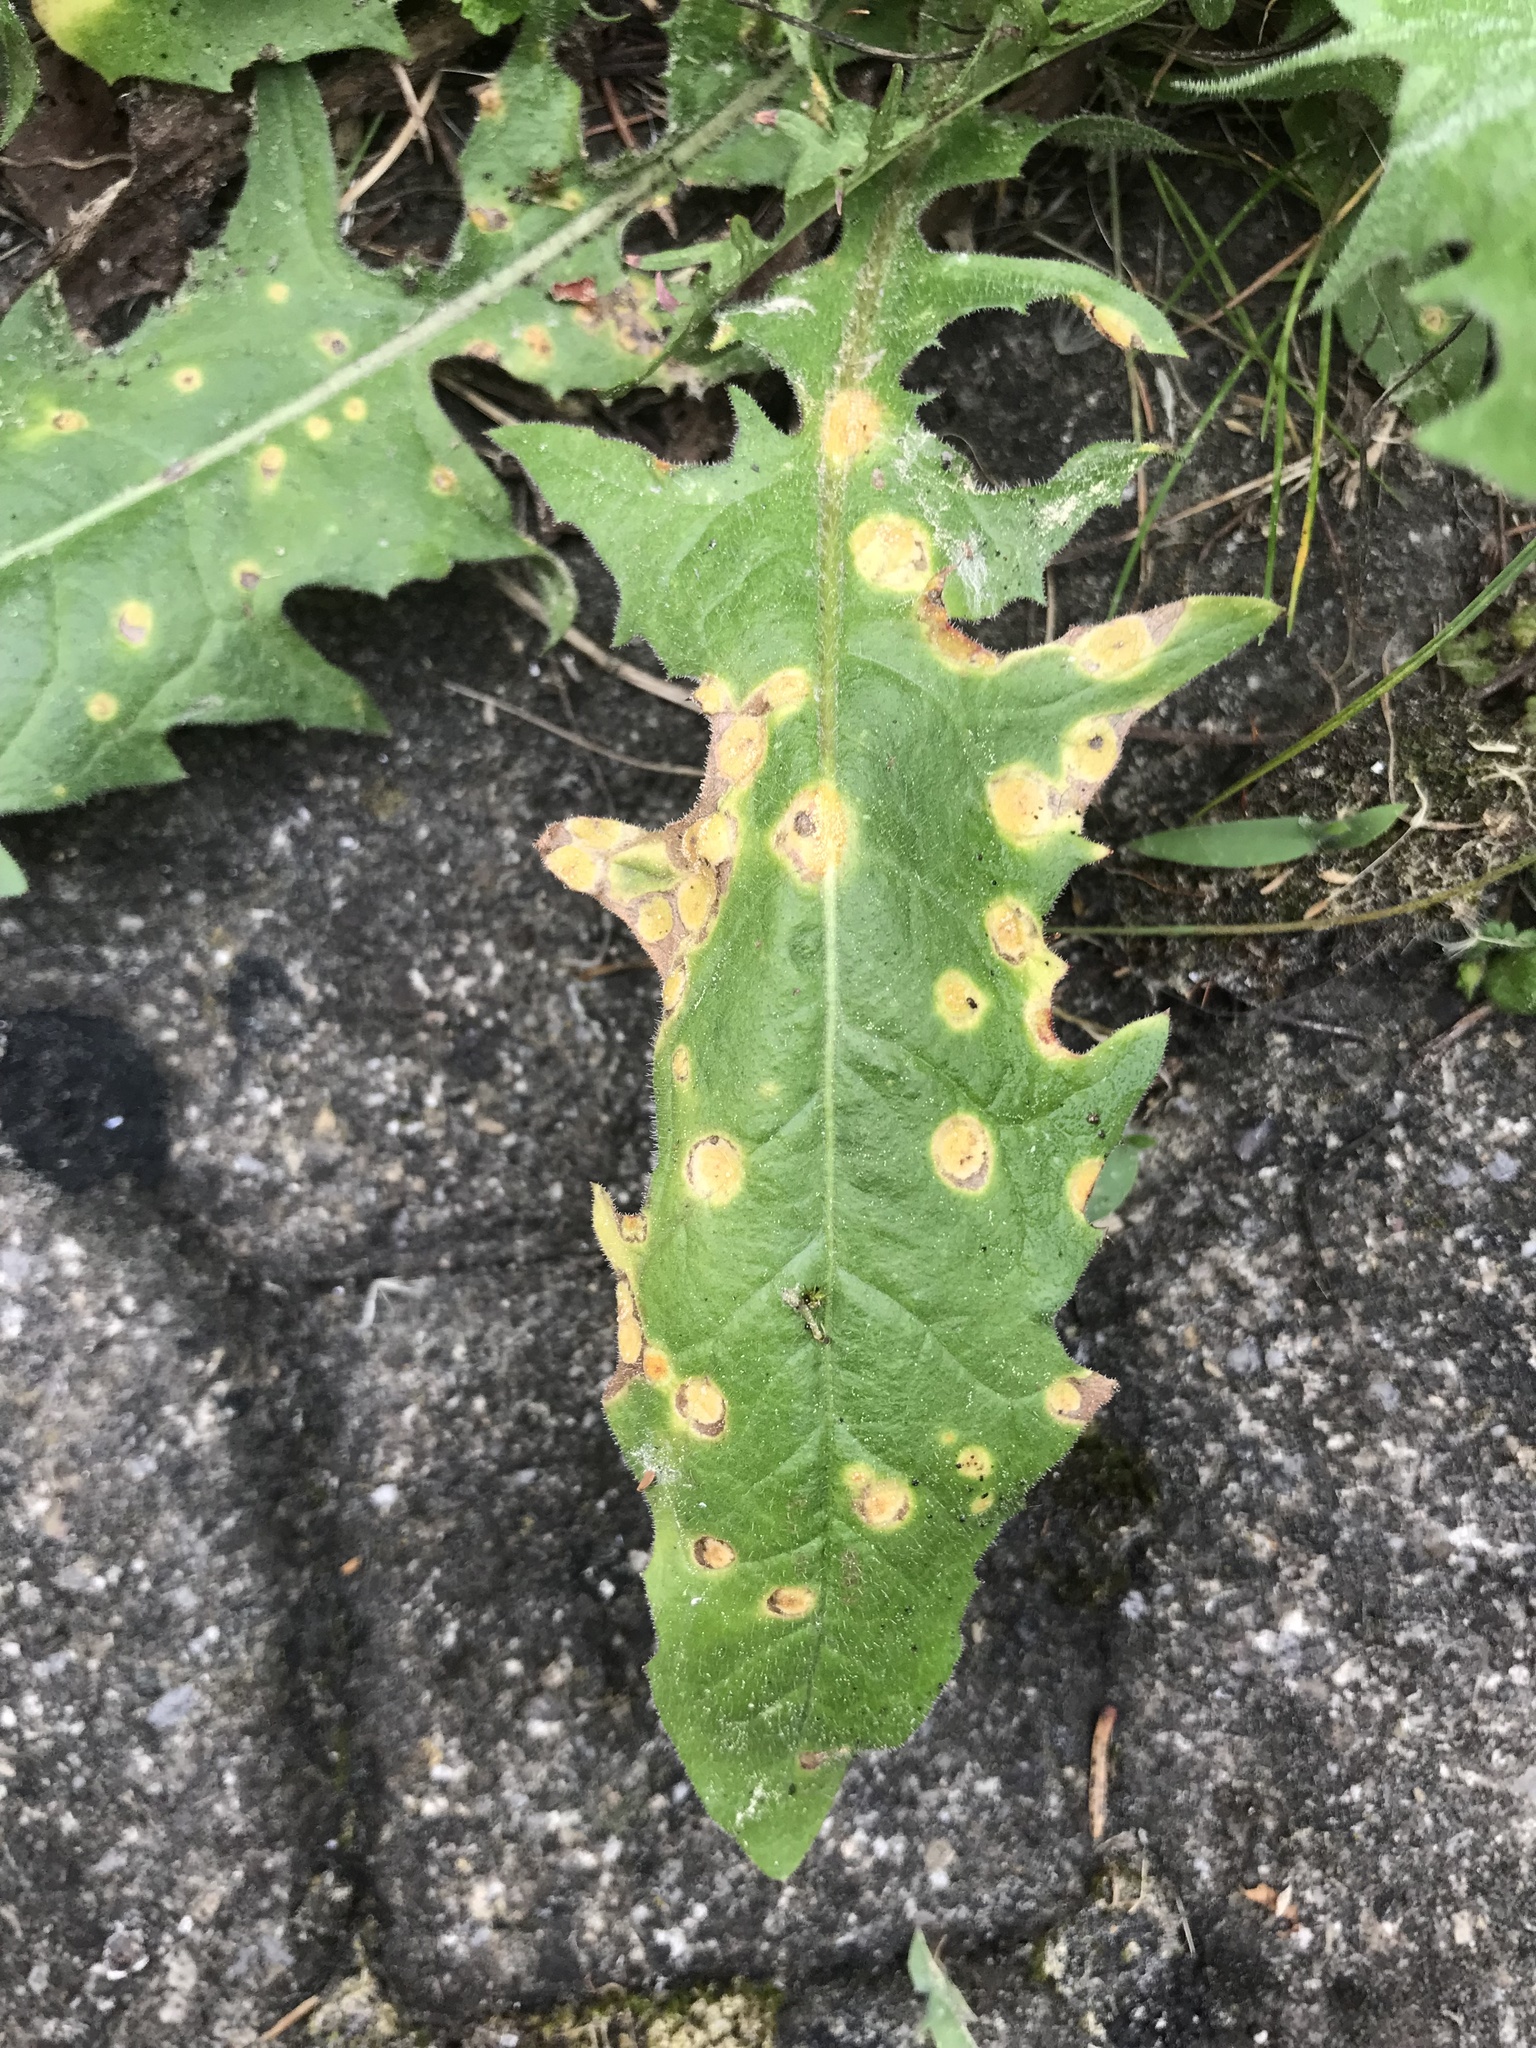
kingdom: Fungi
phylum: Basidiomycota
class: Pucciniomycetes
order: Pucciniales
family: Pucciniaceae
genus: Puccinia
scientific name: Puccinia dioicae
